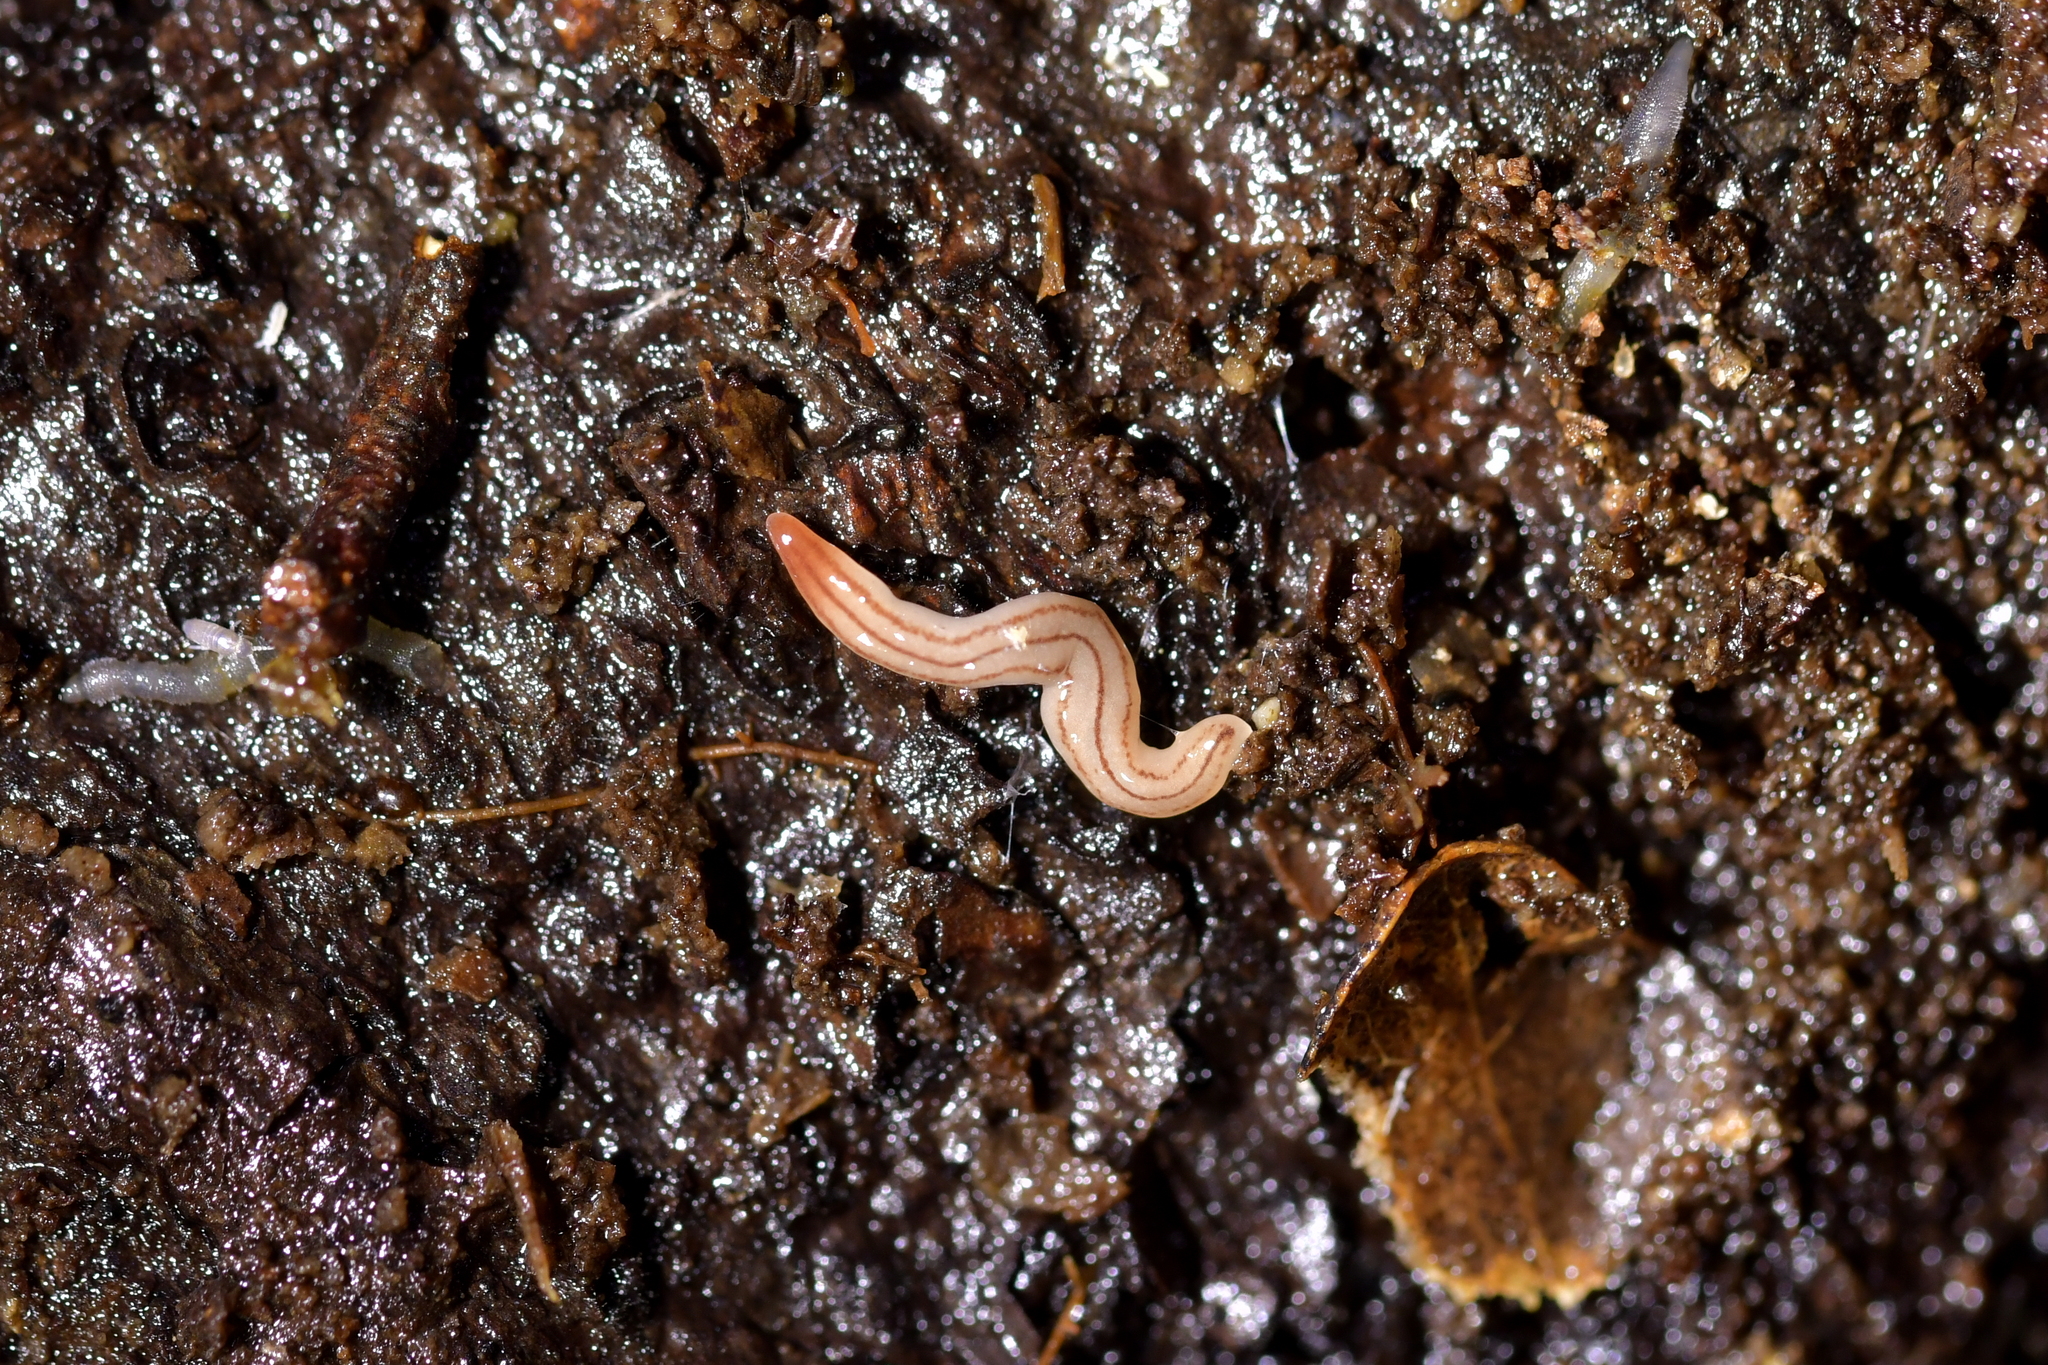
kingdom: Animalia
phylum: Platyhelminthes
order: Tricladida
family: Geoplanidae
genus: Artioposthia
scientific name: Artioposthia howesi
